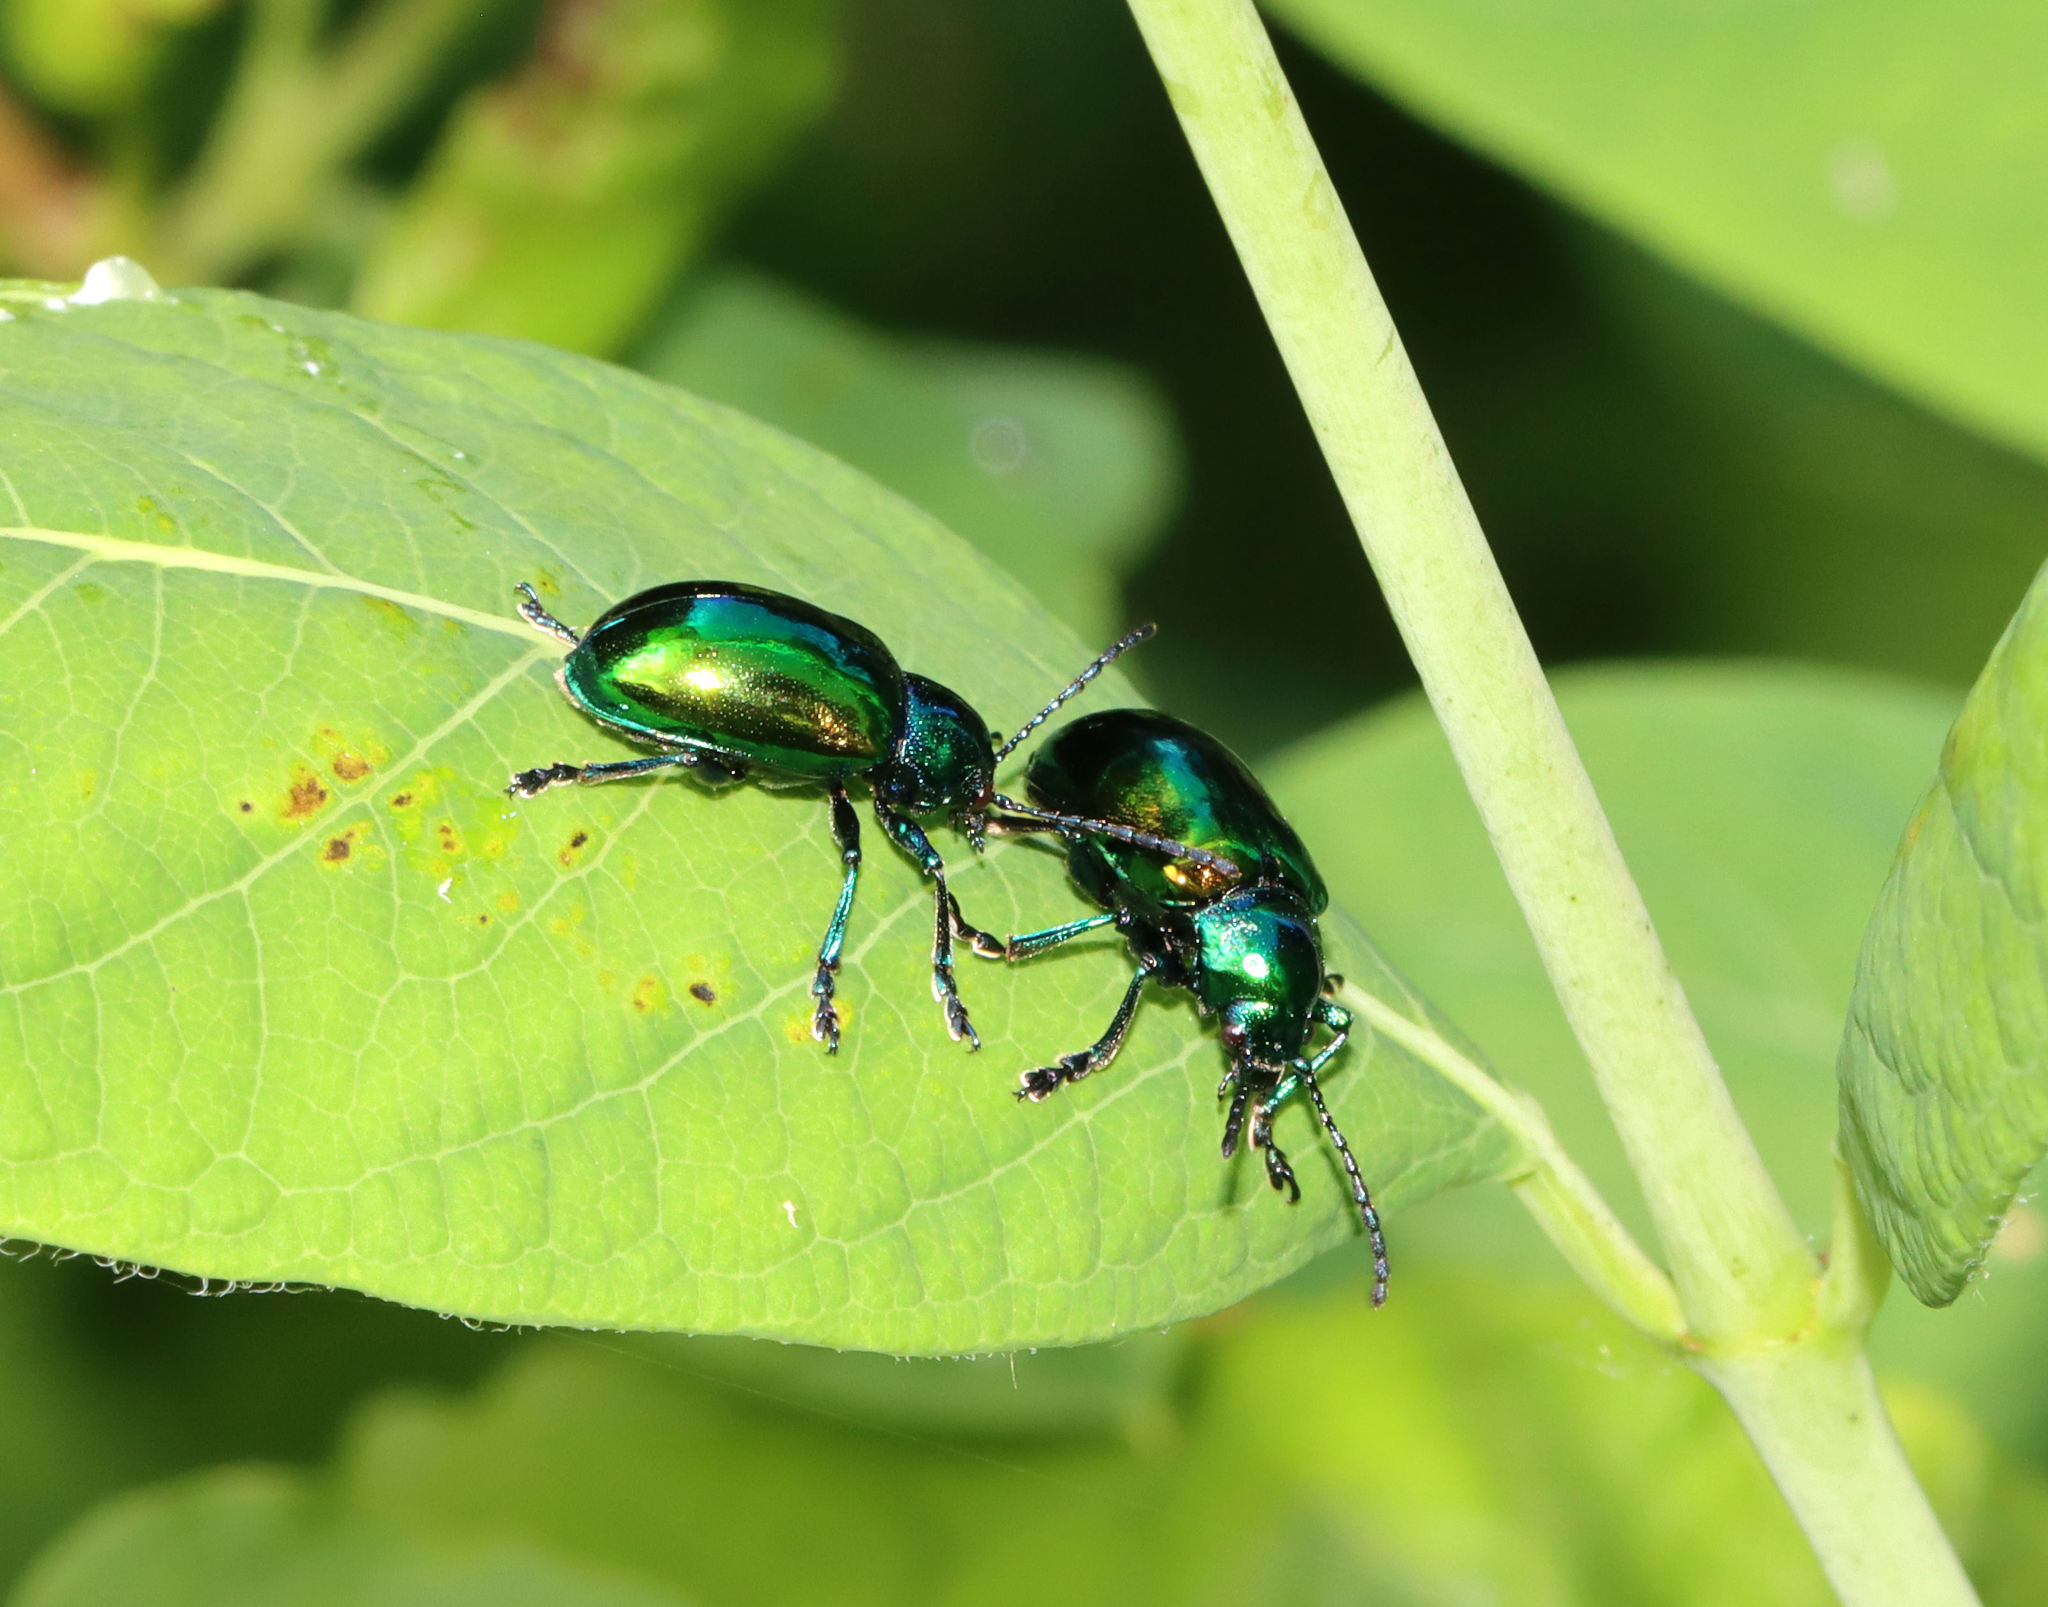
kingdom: Animalia
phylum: Arthropoda
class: Insecta
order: Coleoptera
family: Chrysomelidae
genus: Chrysochus
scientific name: Chrysochus auratus
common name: Dogbane leaf beetle
